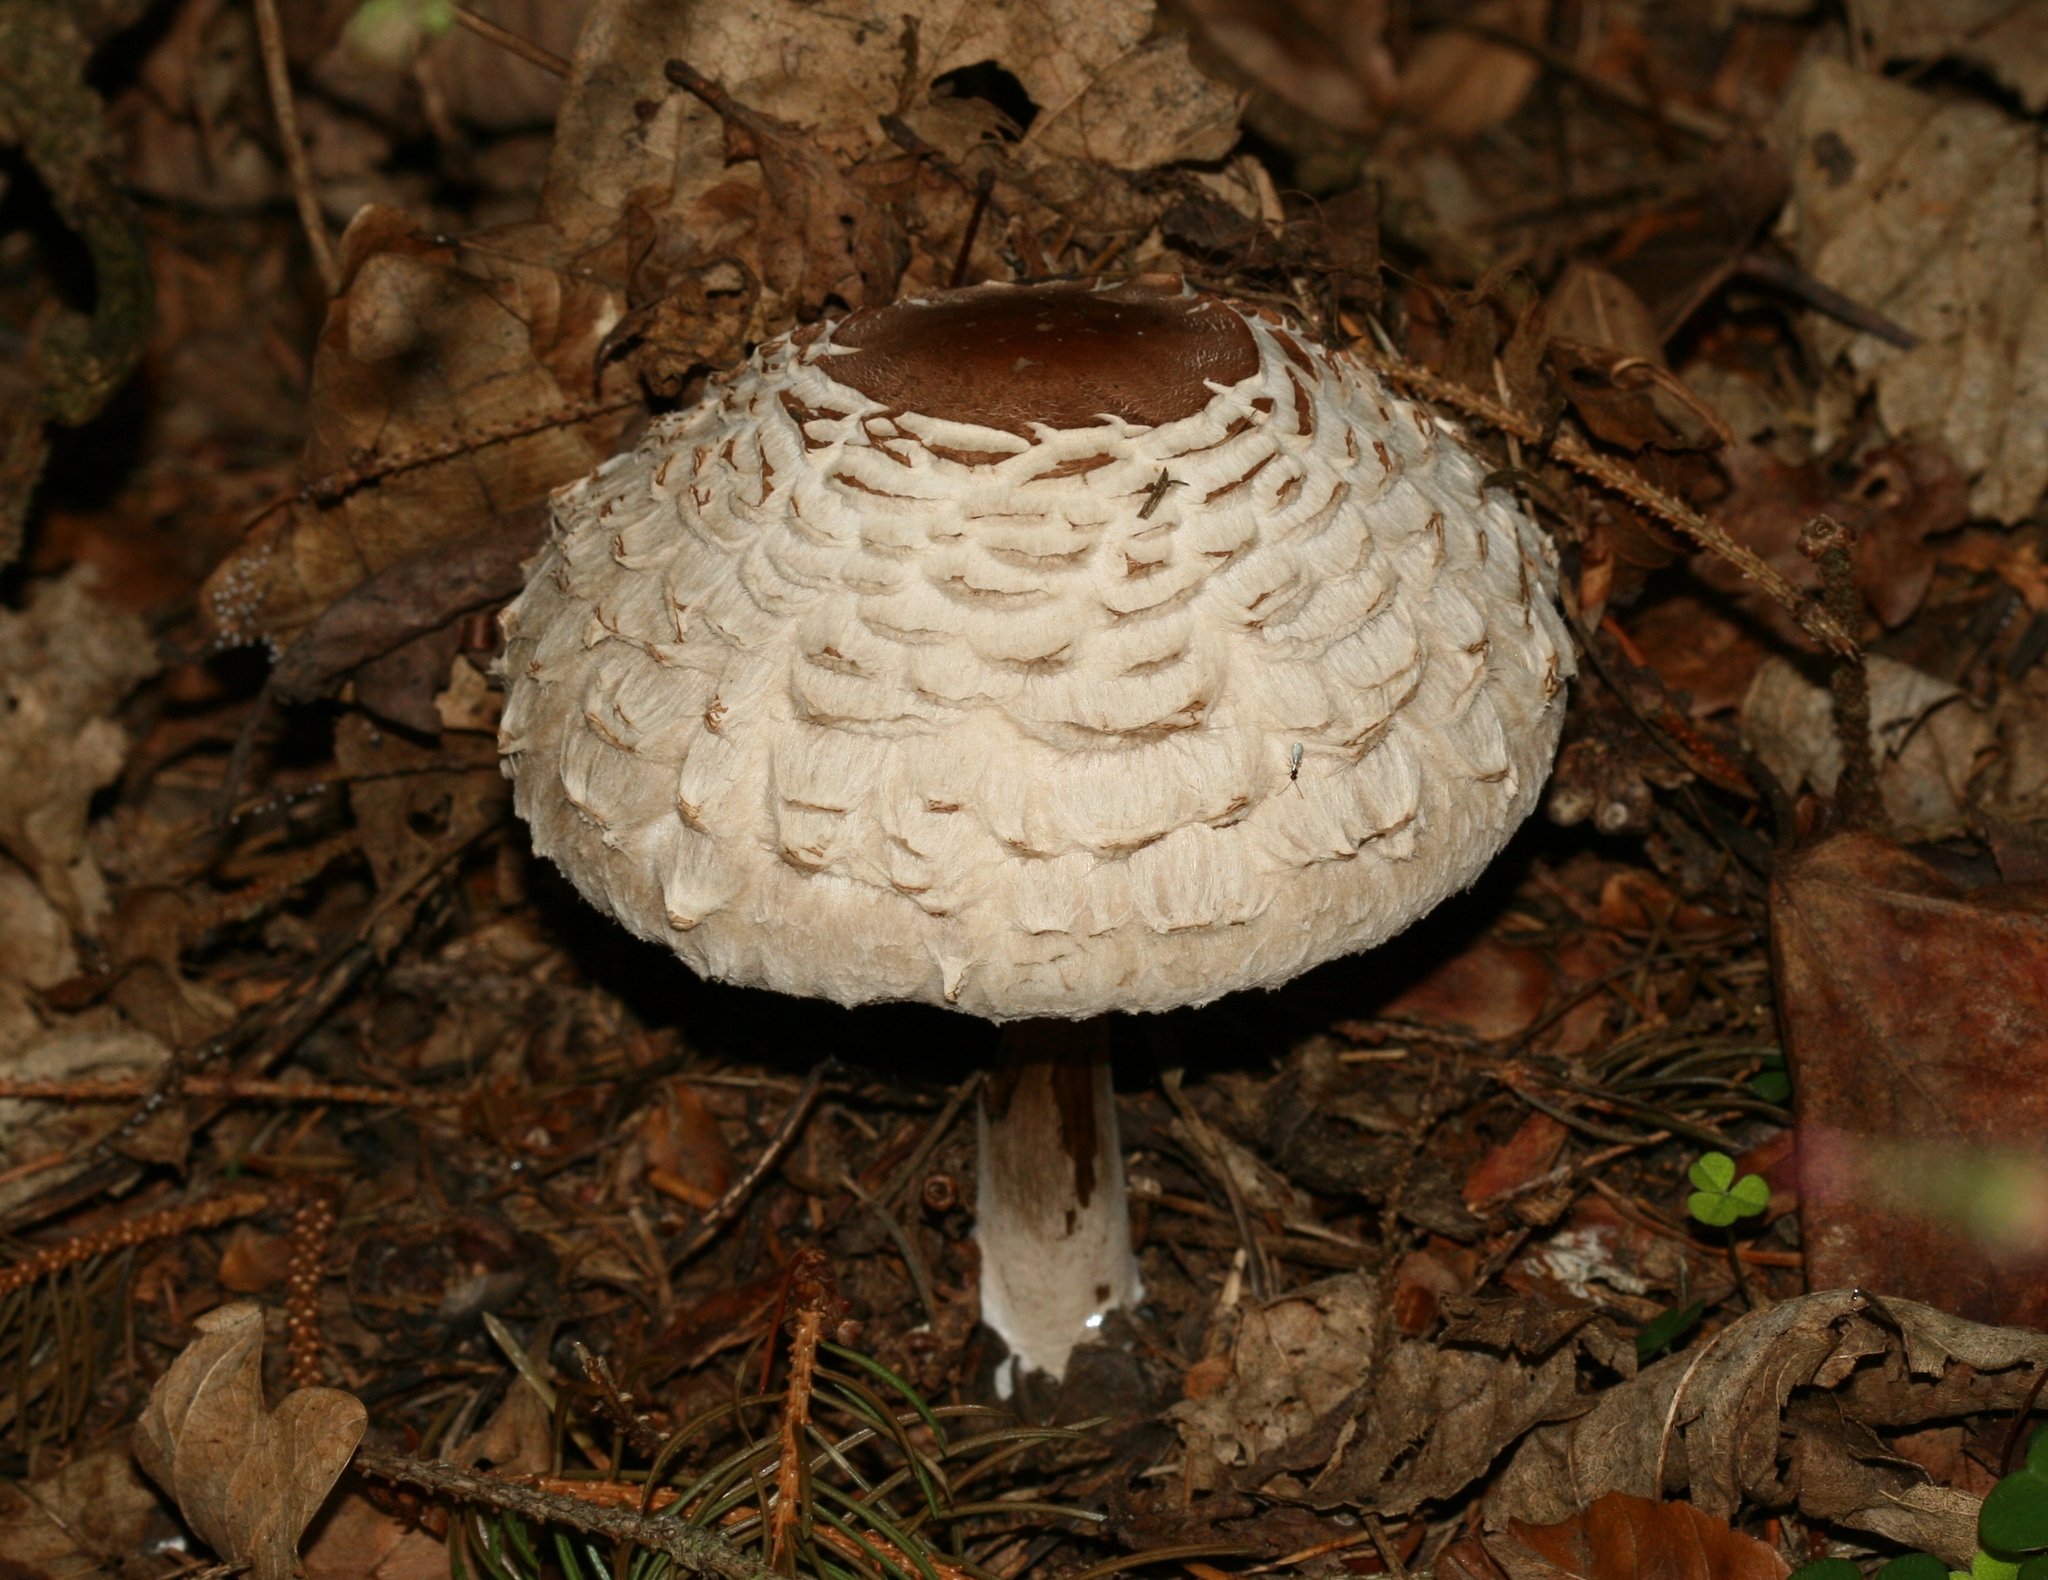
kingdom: Fungi
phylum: Basidiomycota
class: Agaricomycetes
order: Agaricales
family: Agaricaceae
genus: Chlorophyllum
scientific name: Chlorophyllum rhacodes
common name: Shaggy parasol
